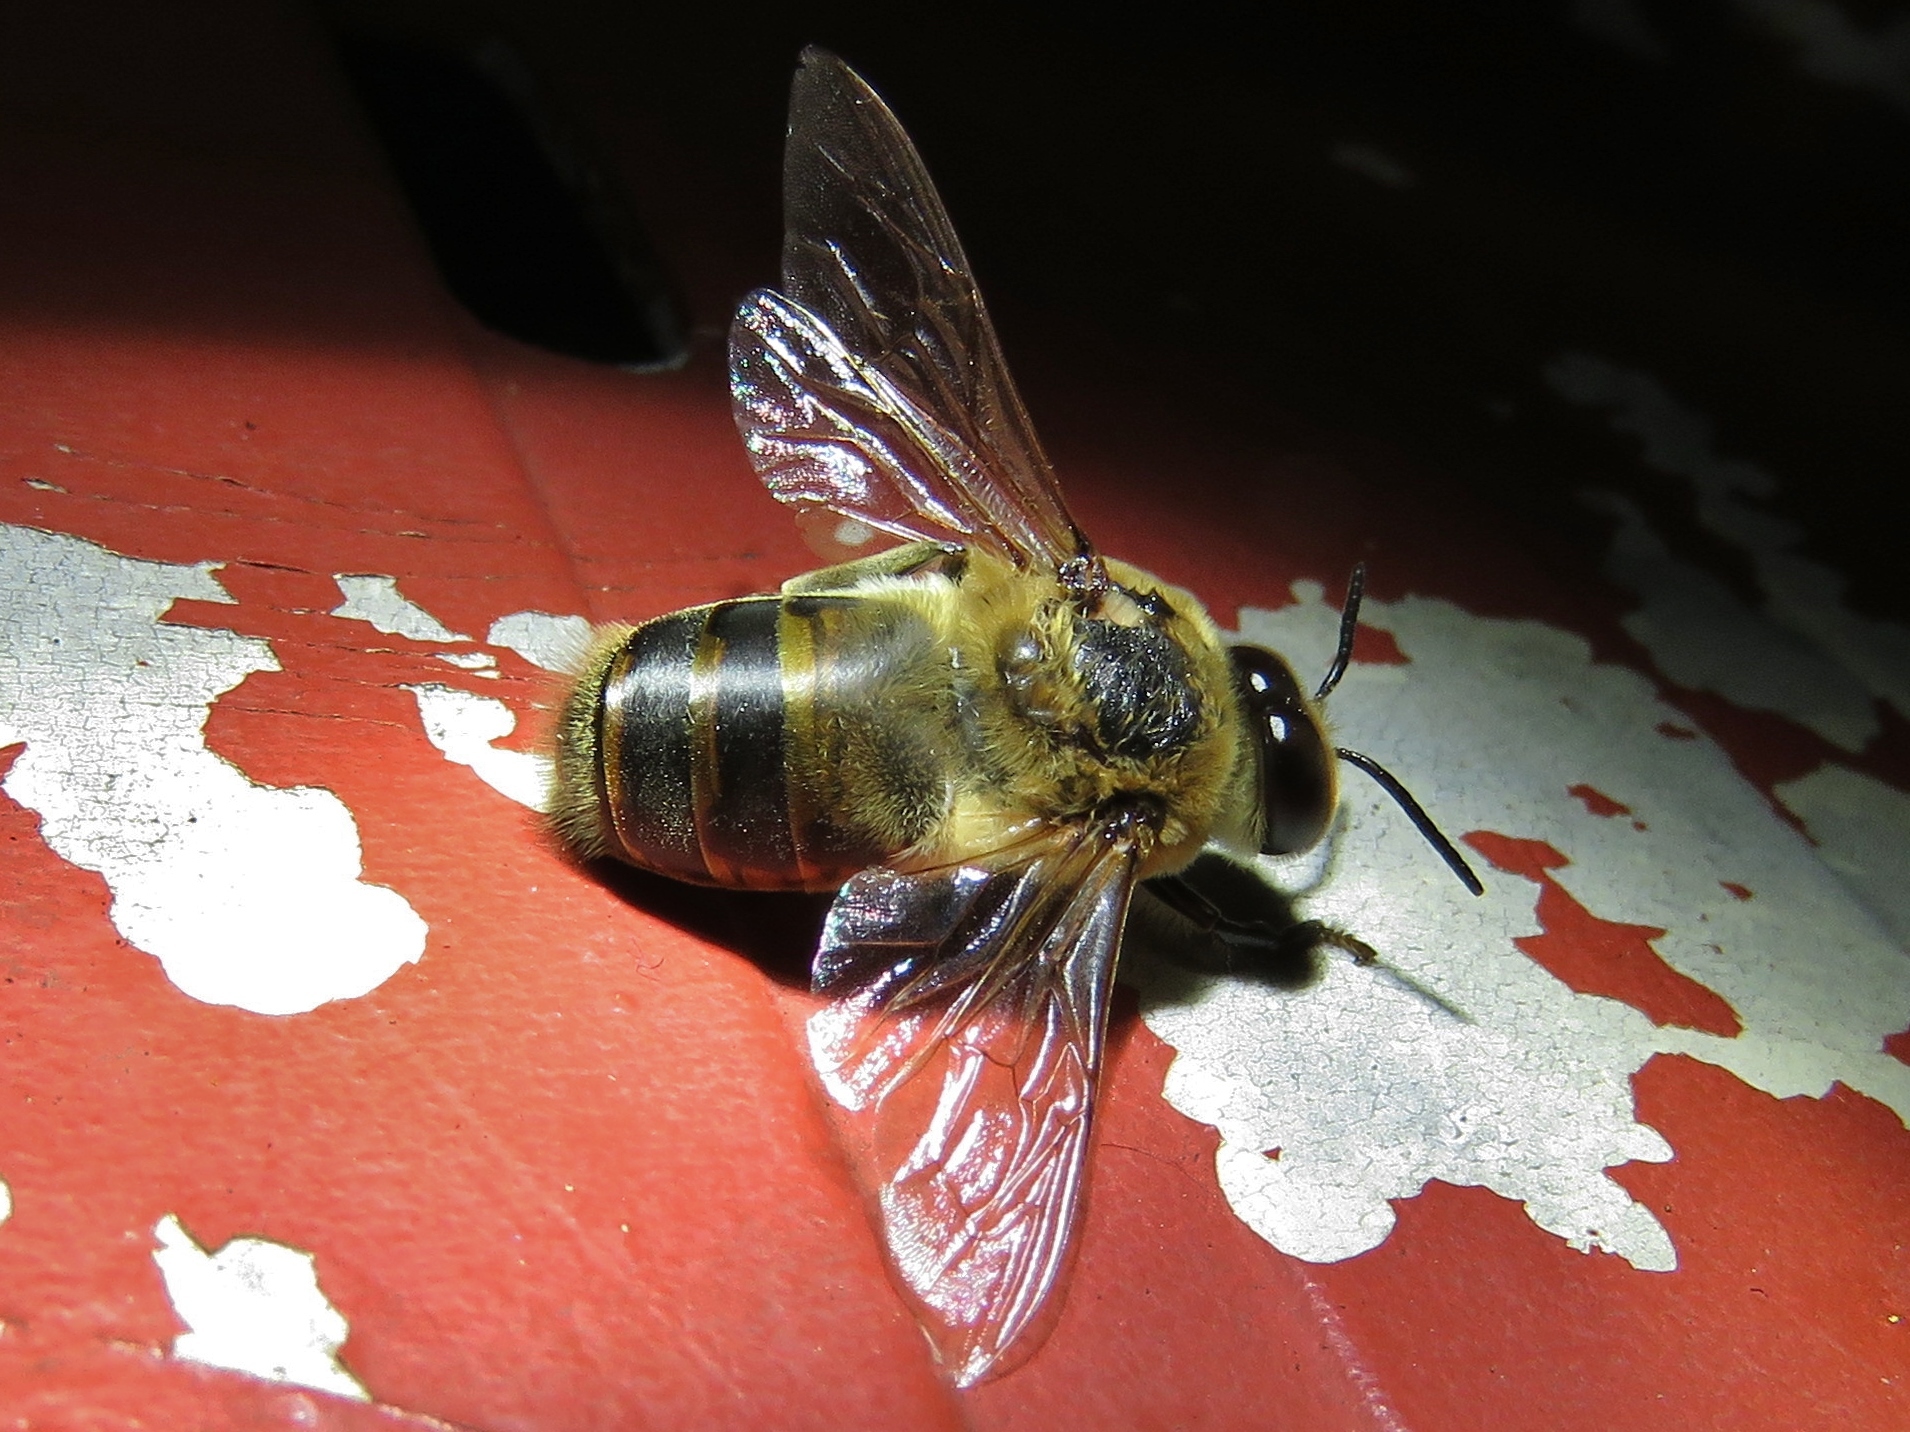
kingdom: Animalia
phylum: Arthropoda
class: Insecta
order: Hymenoptera
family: Apidae
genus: Apis
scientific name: Apis mellifera
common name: Honey bee
